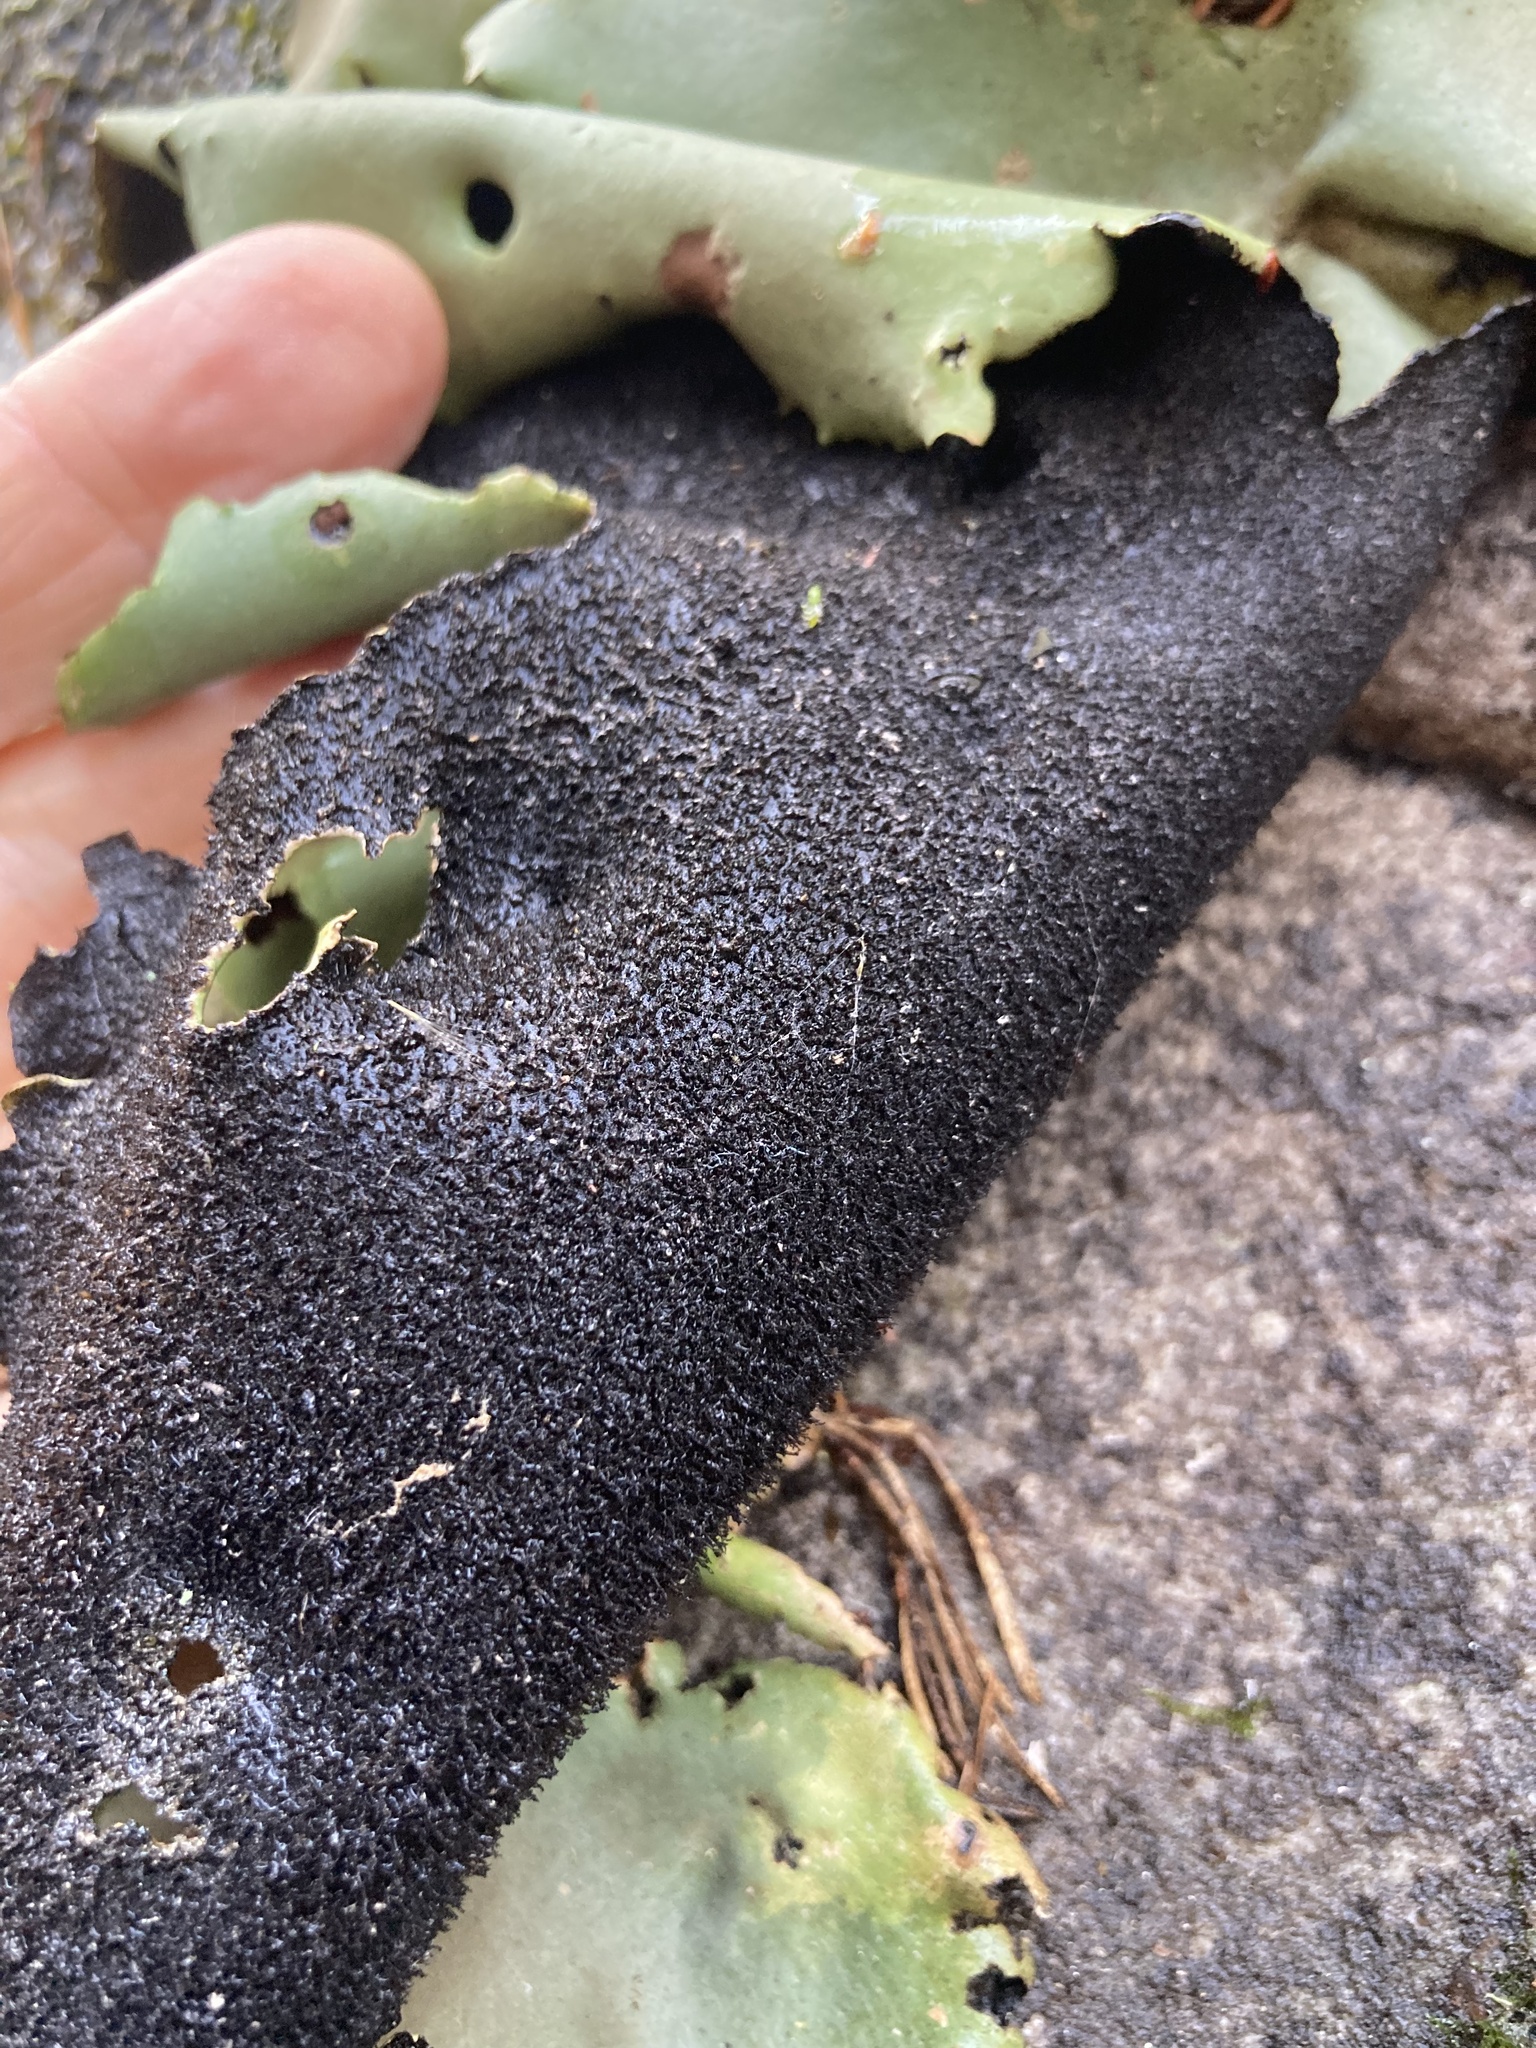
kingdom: Fungi
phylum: Ascomycota
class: Lecanoromycetes
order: Umbilicariales
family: Umbilicariaceae
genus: Umbilicaria
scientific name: Umbilicaria mammulata
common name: Smooth rock tripe
